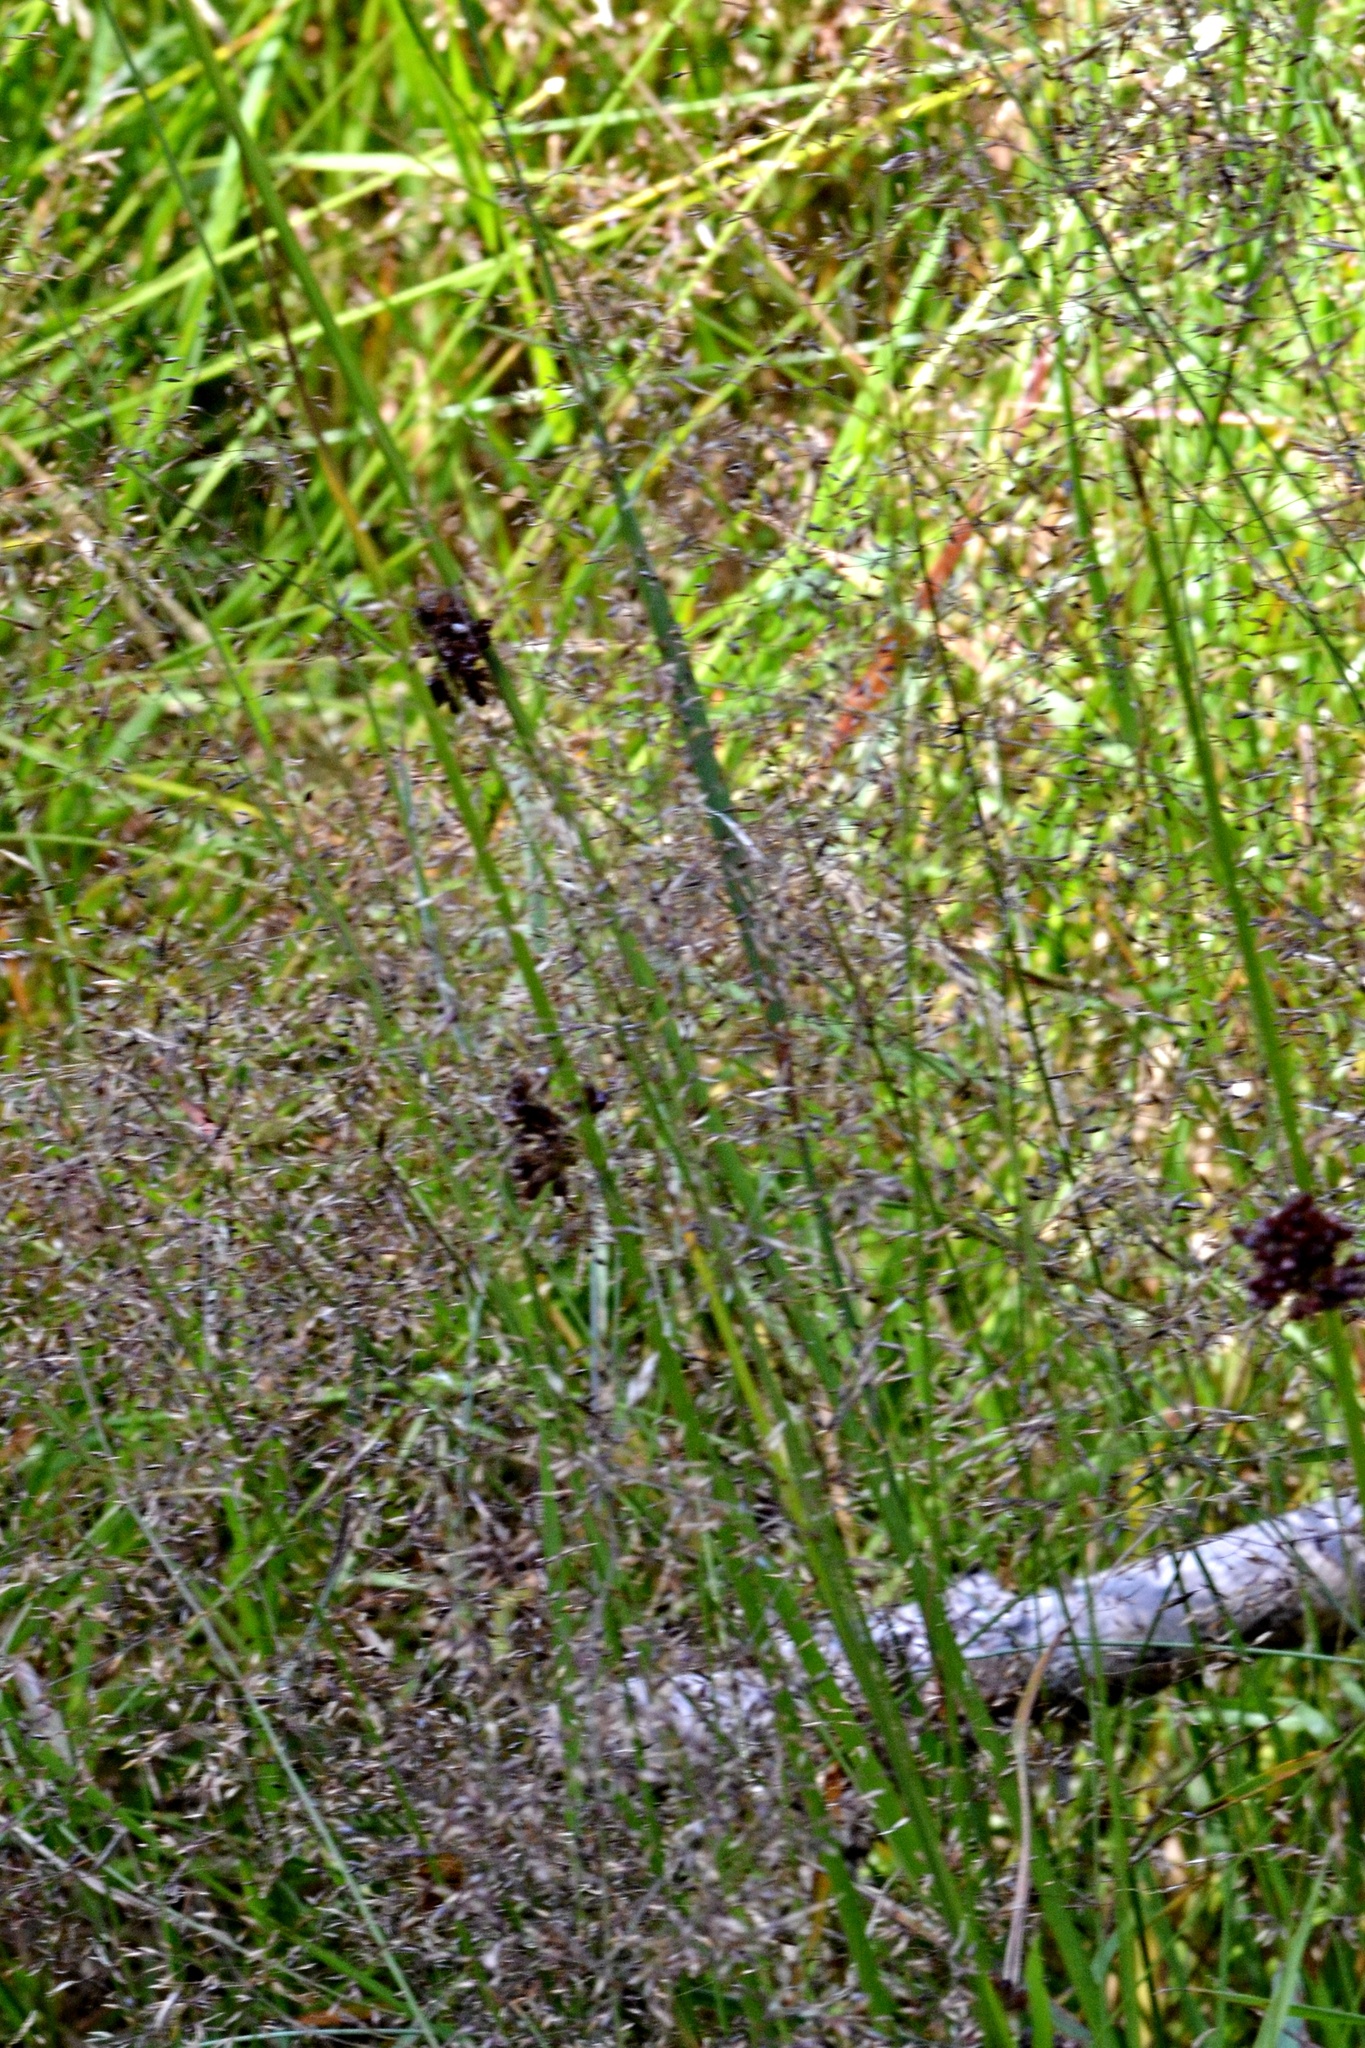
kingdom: Plantae
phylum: Tracheophyta
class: Liliopsida
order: Poales
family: Juncaceae
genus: Juncus
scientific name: Juncus effusus
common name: Soft rush
